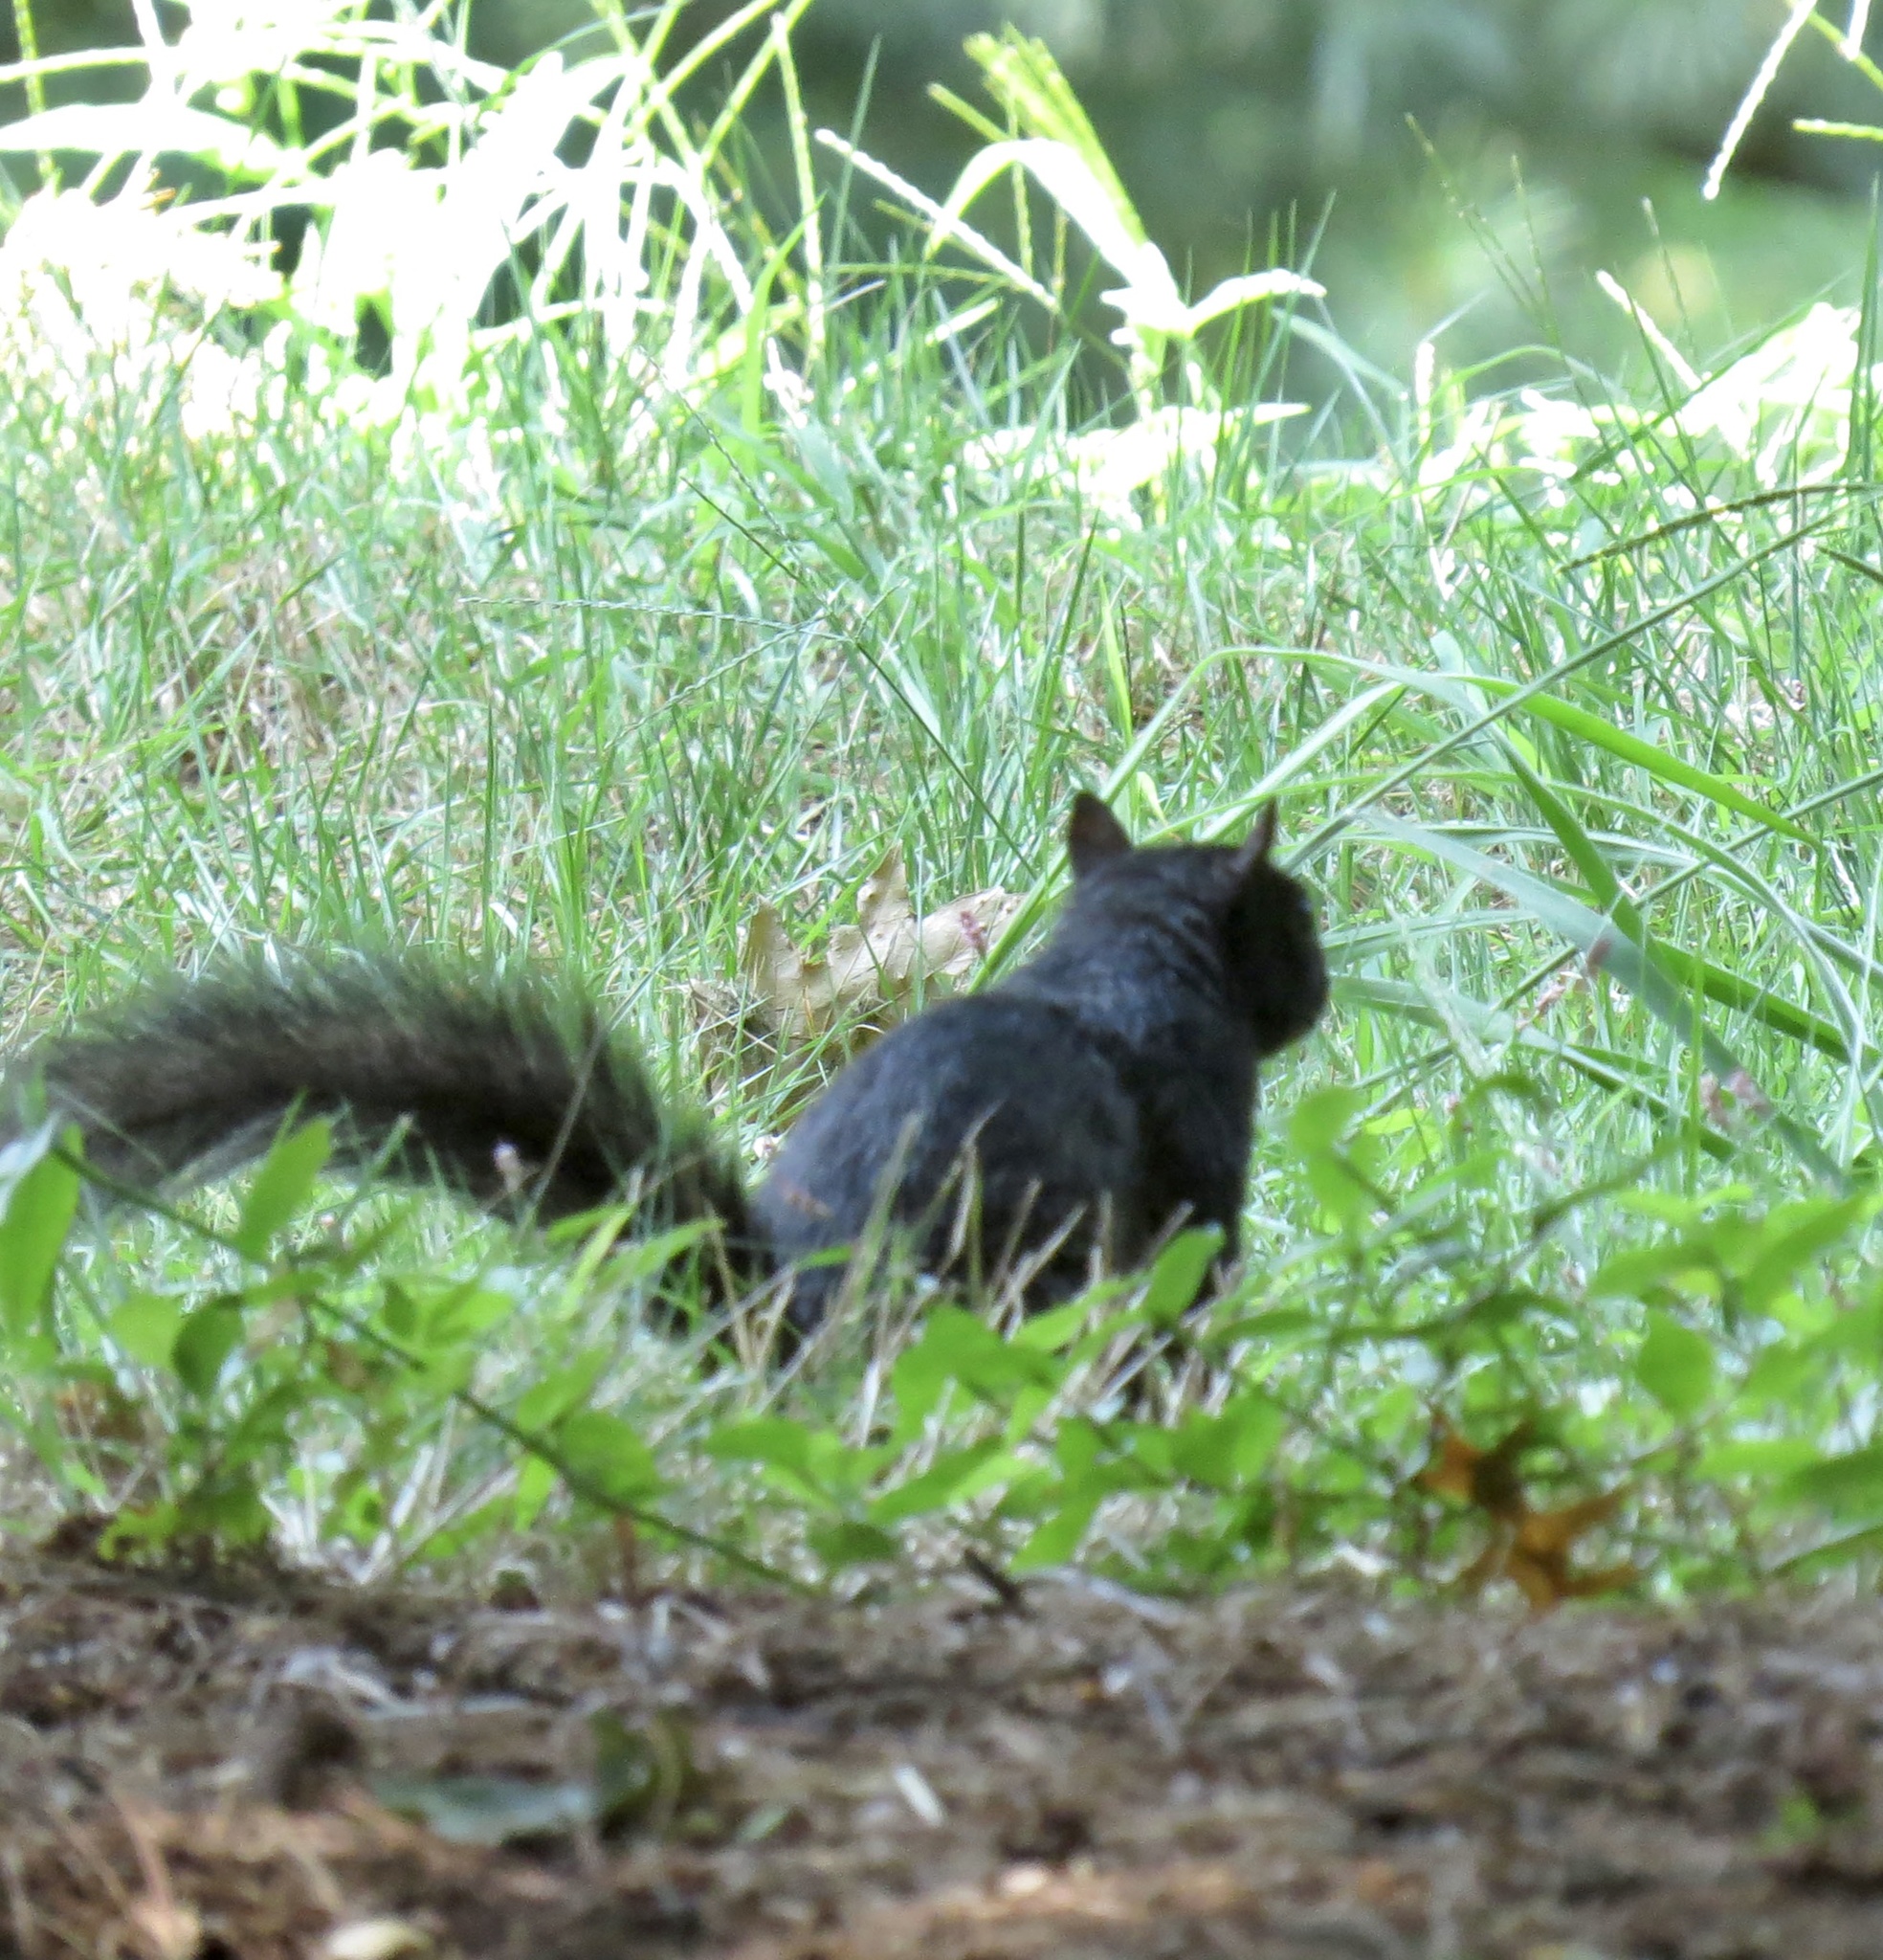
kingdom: Animalia
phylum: Chordata
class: Mammalia
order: Rodentia
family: Sciuridae
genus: Sciurus
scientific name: Sciurus carolinensis
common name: Eastern gray squirrel
